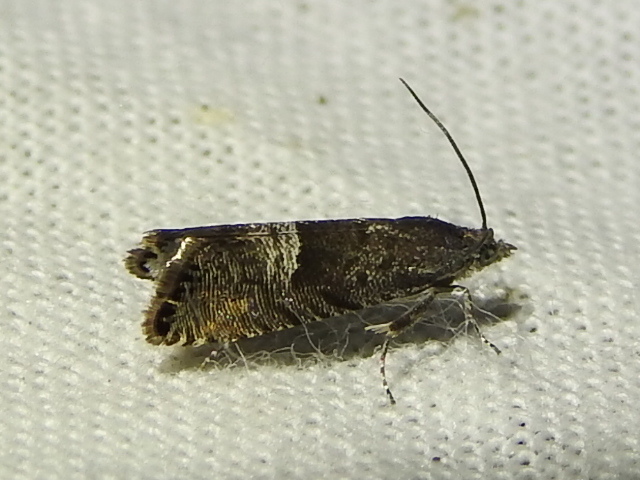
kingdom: Animalia
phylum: Arthropoda
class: Insecta
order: Lepidoptera
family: Tortricidae
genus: Sereda
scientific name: Sereda tautana
